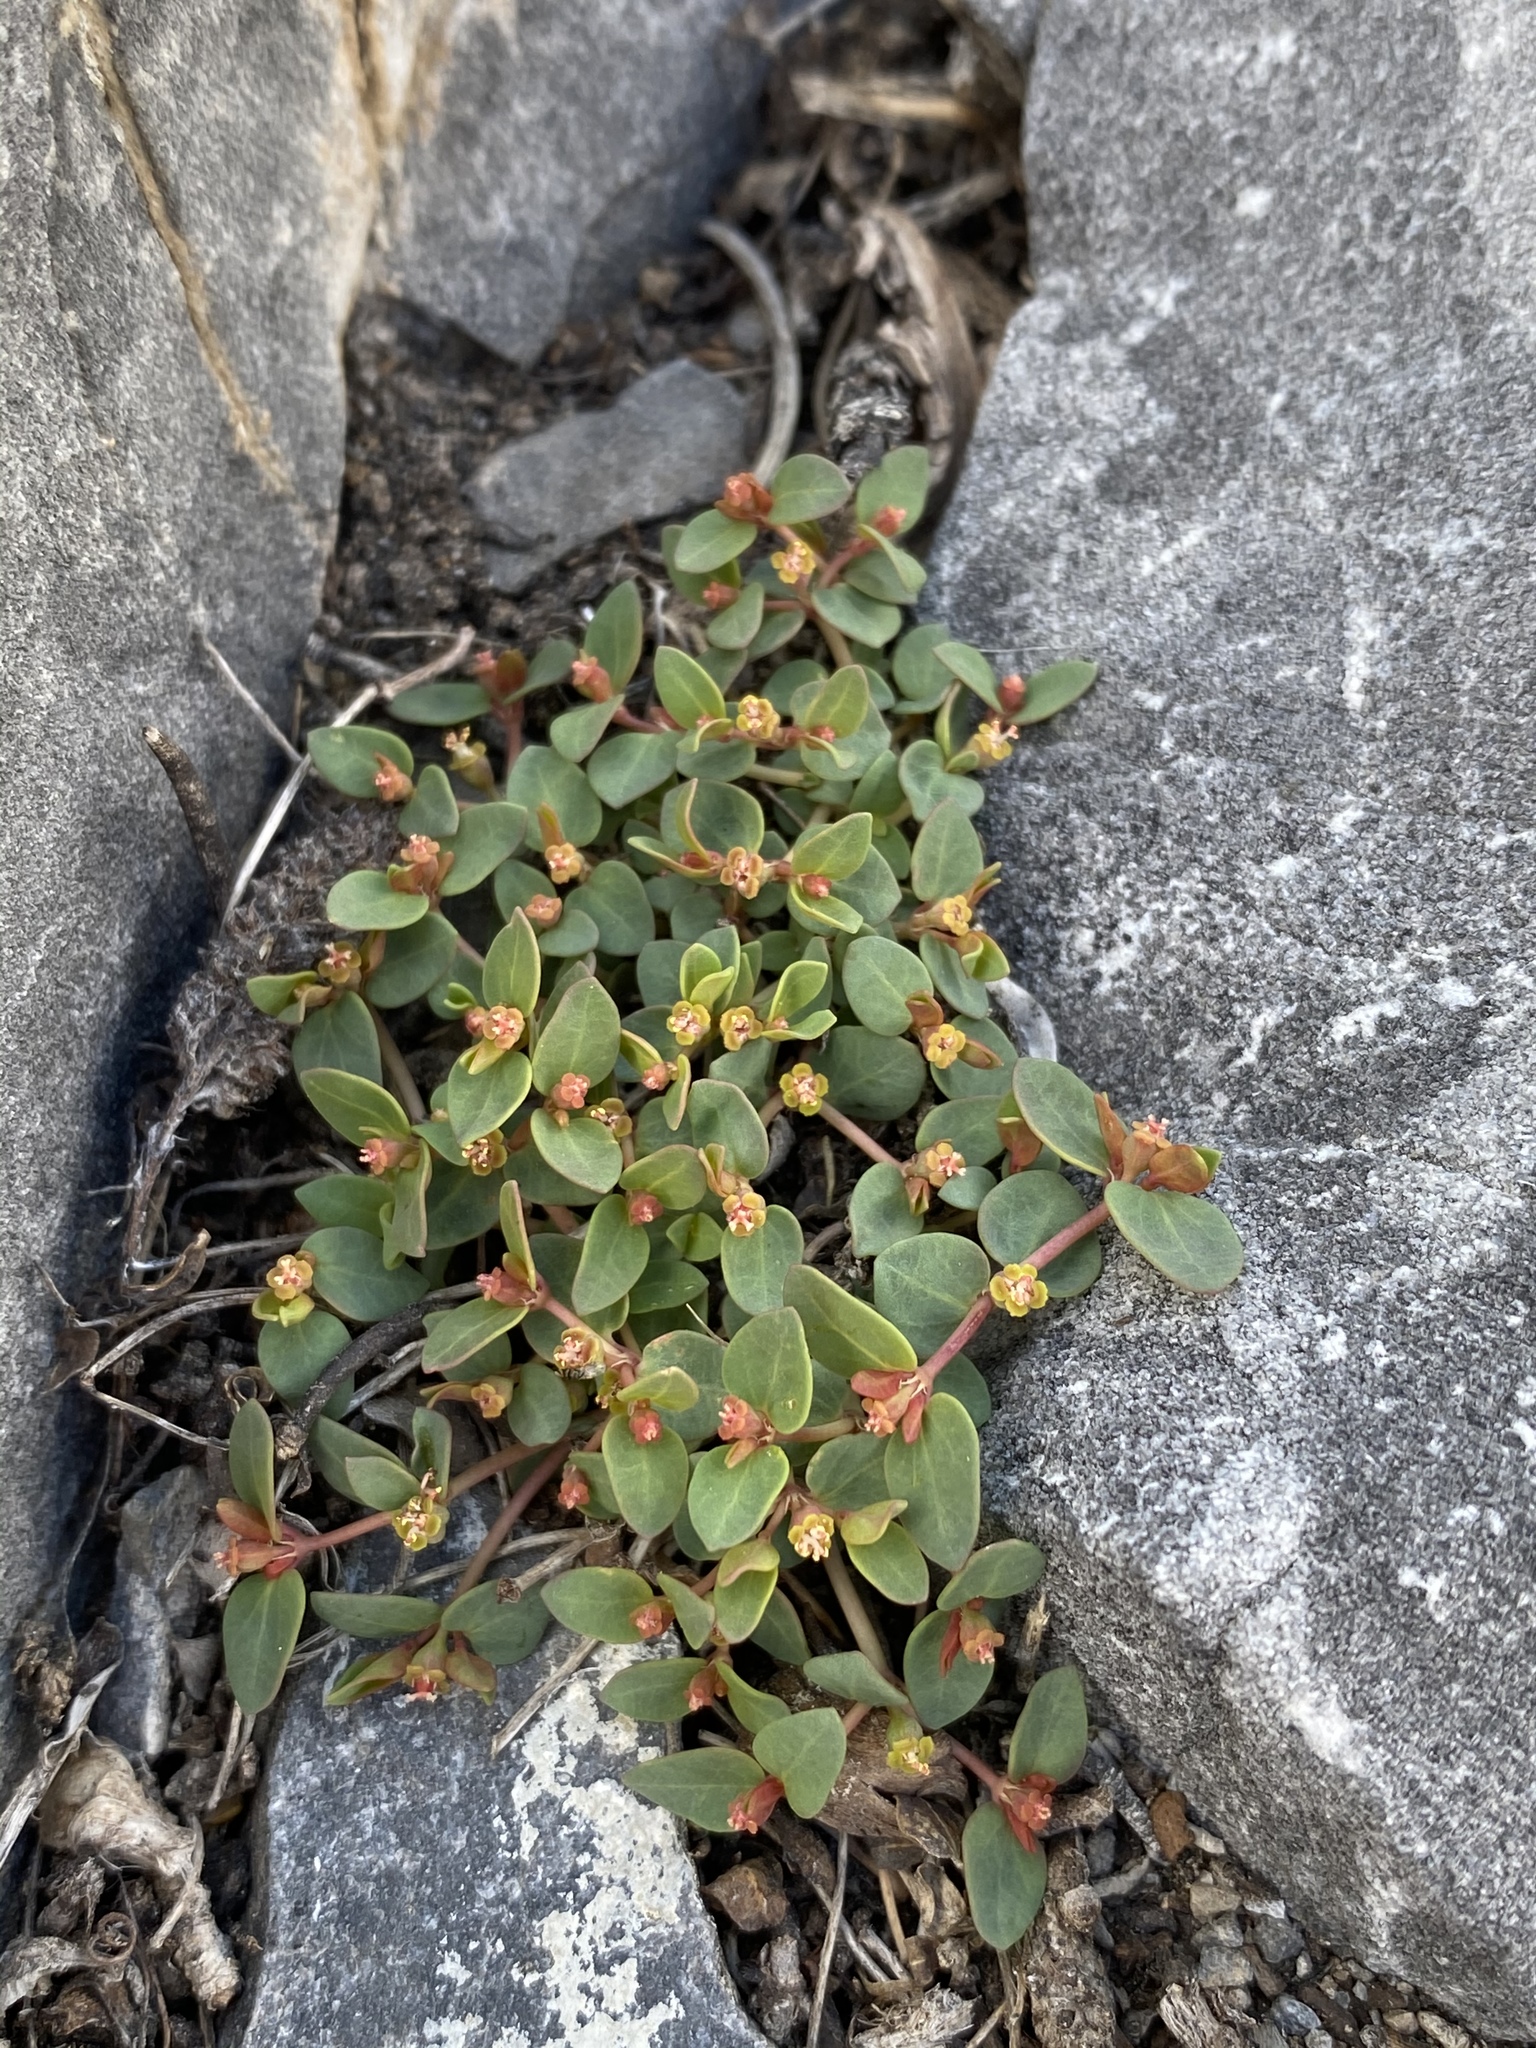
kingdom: Plantae
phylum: Tracheophyta
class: Magnoliopsida
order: Malpighiales
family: Euphorbiaceae
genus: Euphorbia
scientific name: Euphorbia fendleri
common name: Fendler's euphorbia
